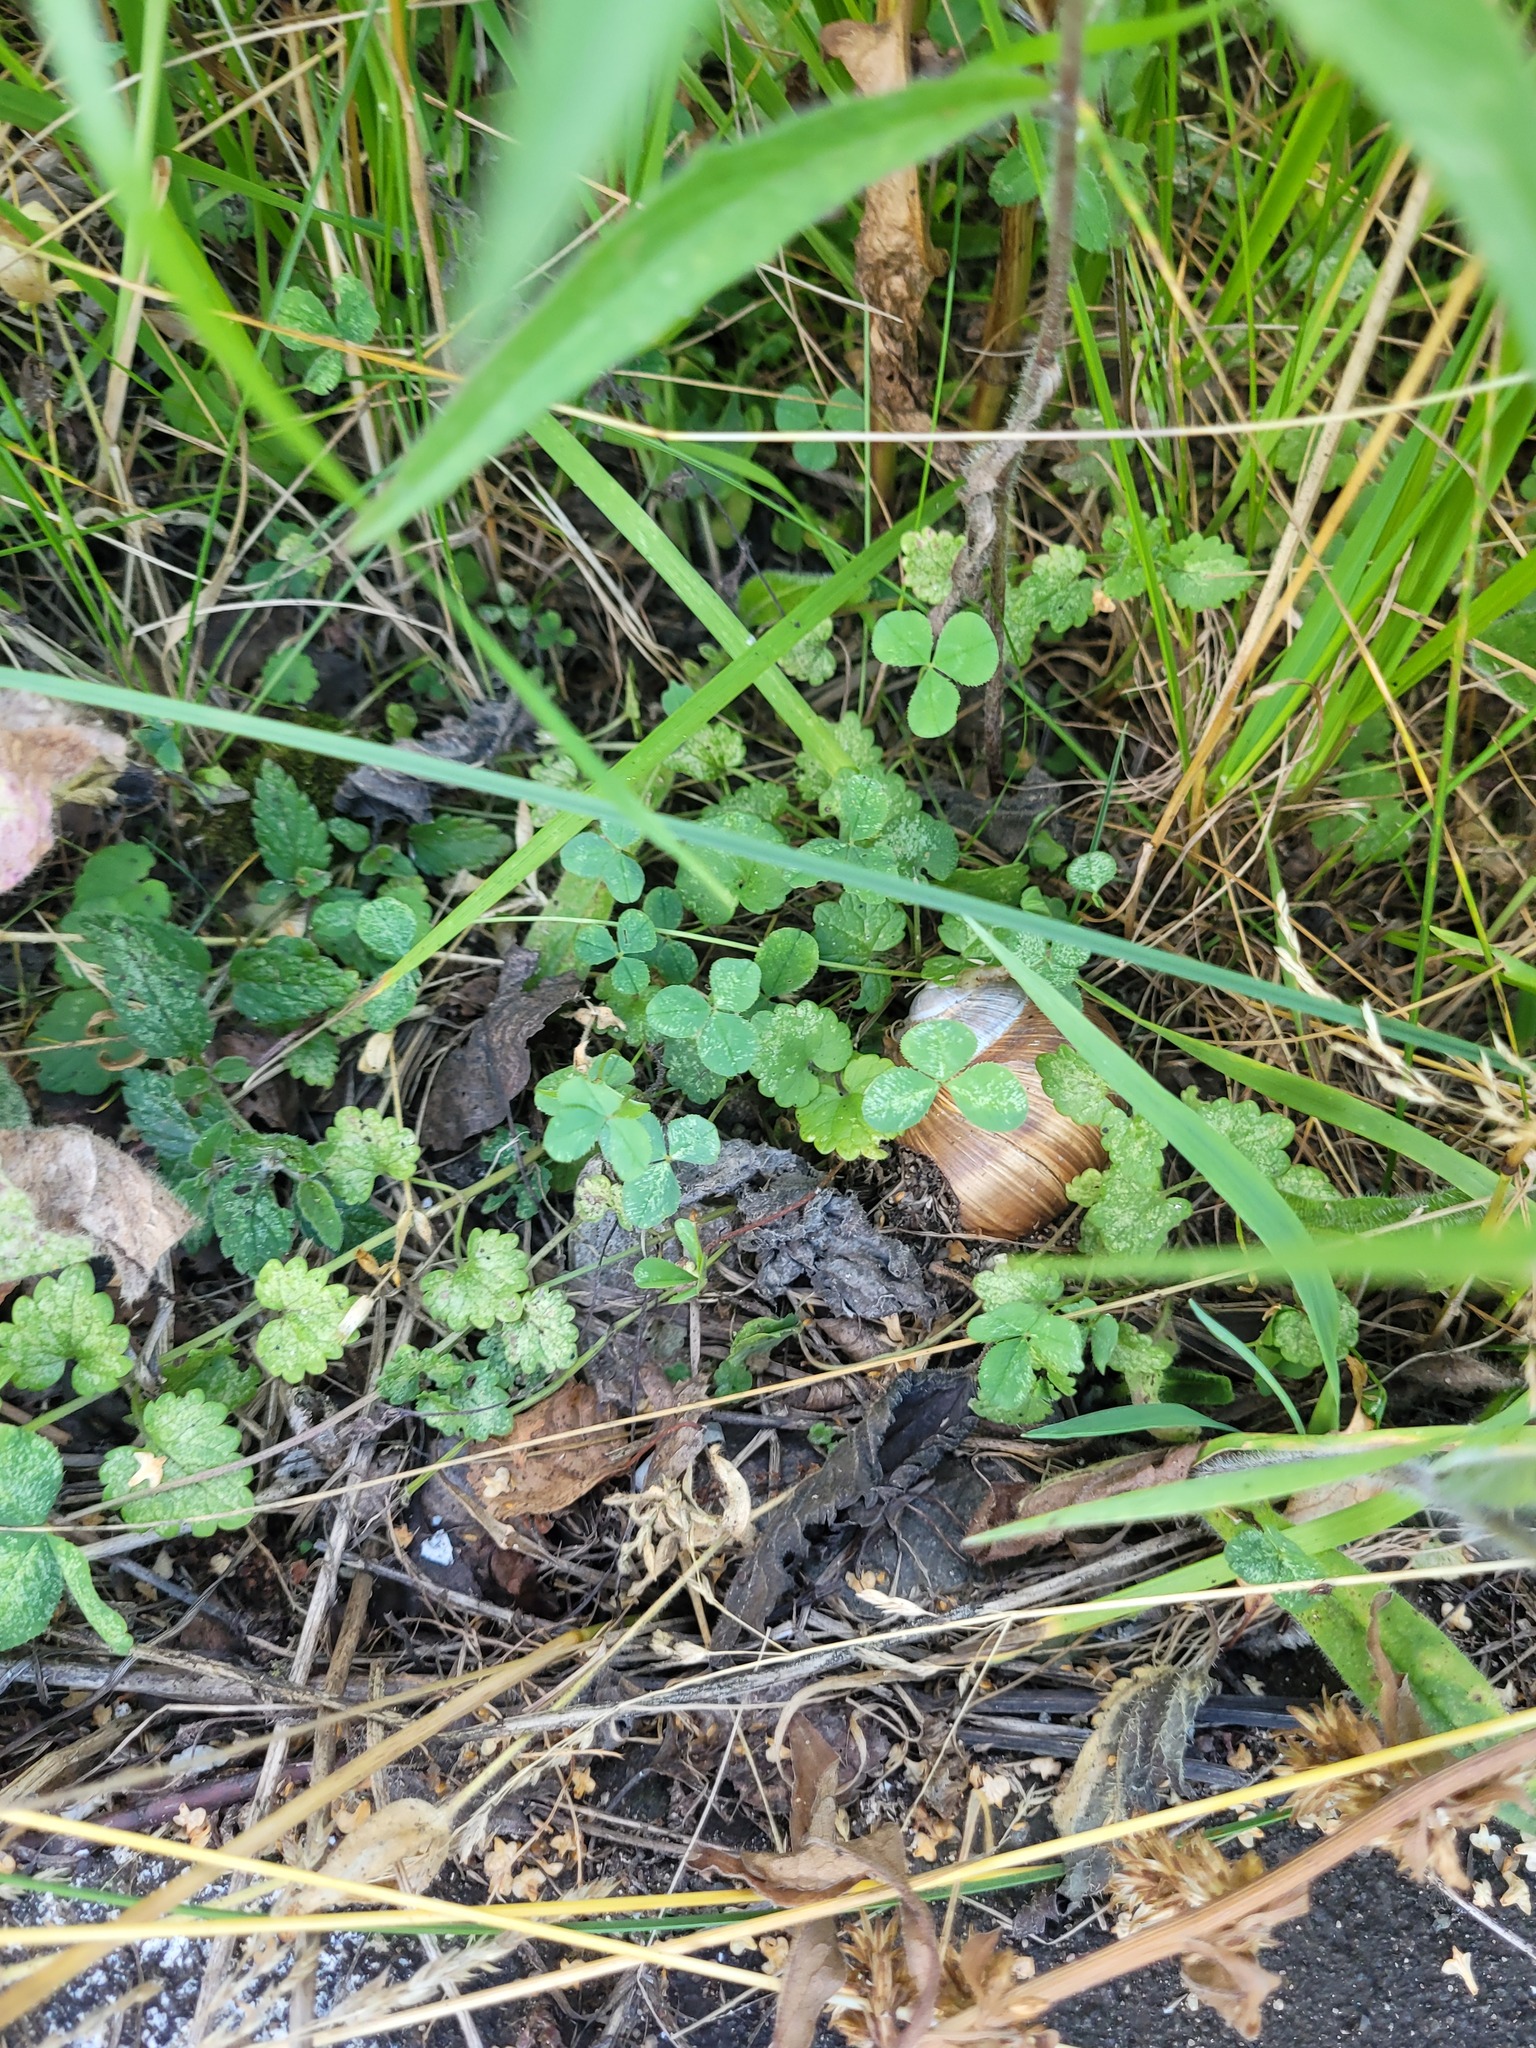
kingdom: Plantae
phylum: Tracheophyta
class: Magnoliopsida
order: Fabales
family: Fabaceae
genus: Trifolium
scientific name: Trifolium repens
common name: White clover
